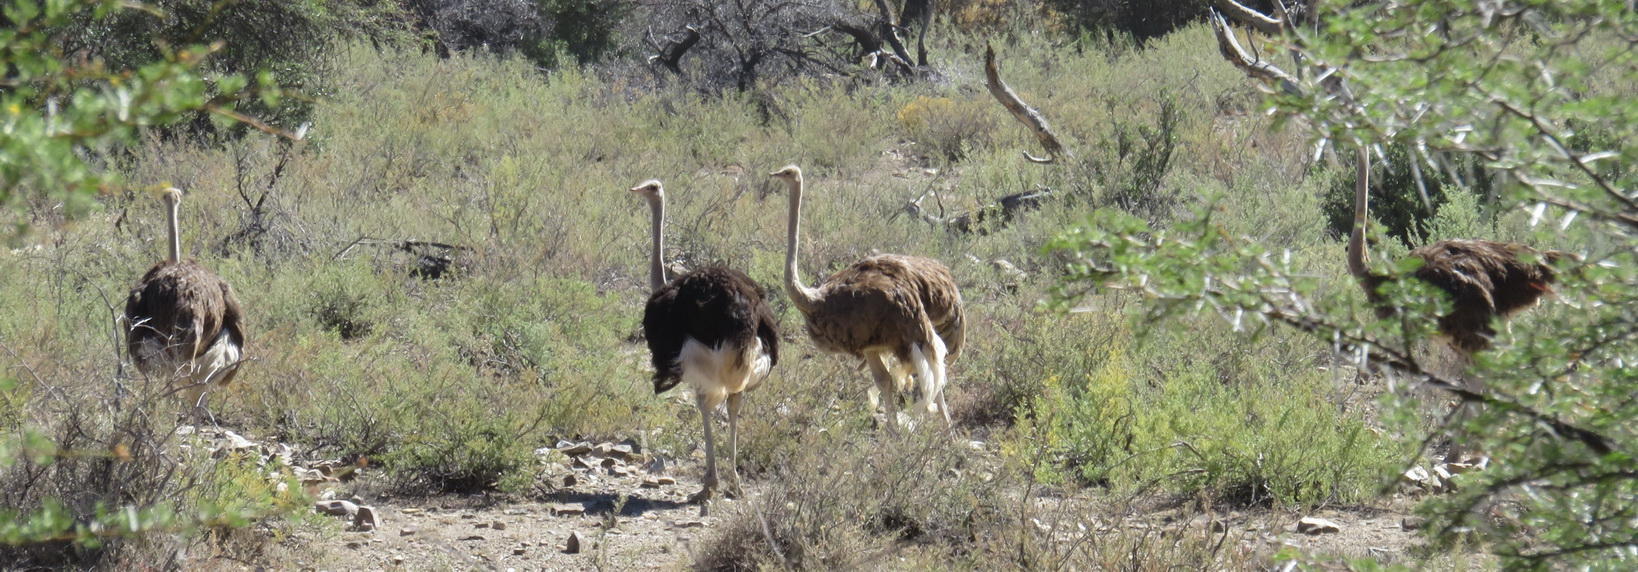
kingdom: Animalia
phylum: Chordata
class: Aves
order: Struthioniformes
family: Struthionidae
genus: Struthio
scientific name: Struthio camelus
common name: Common ostrich
